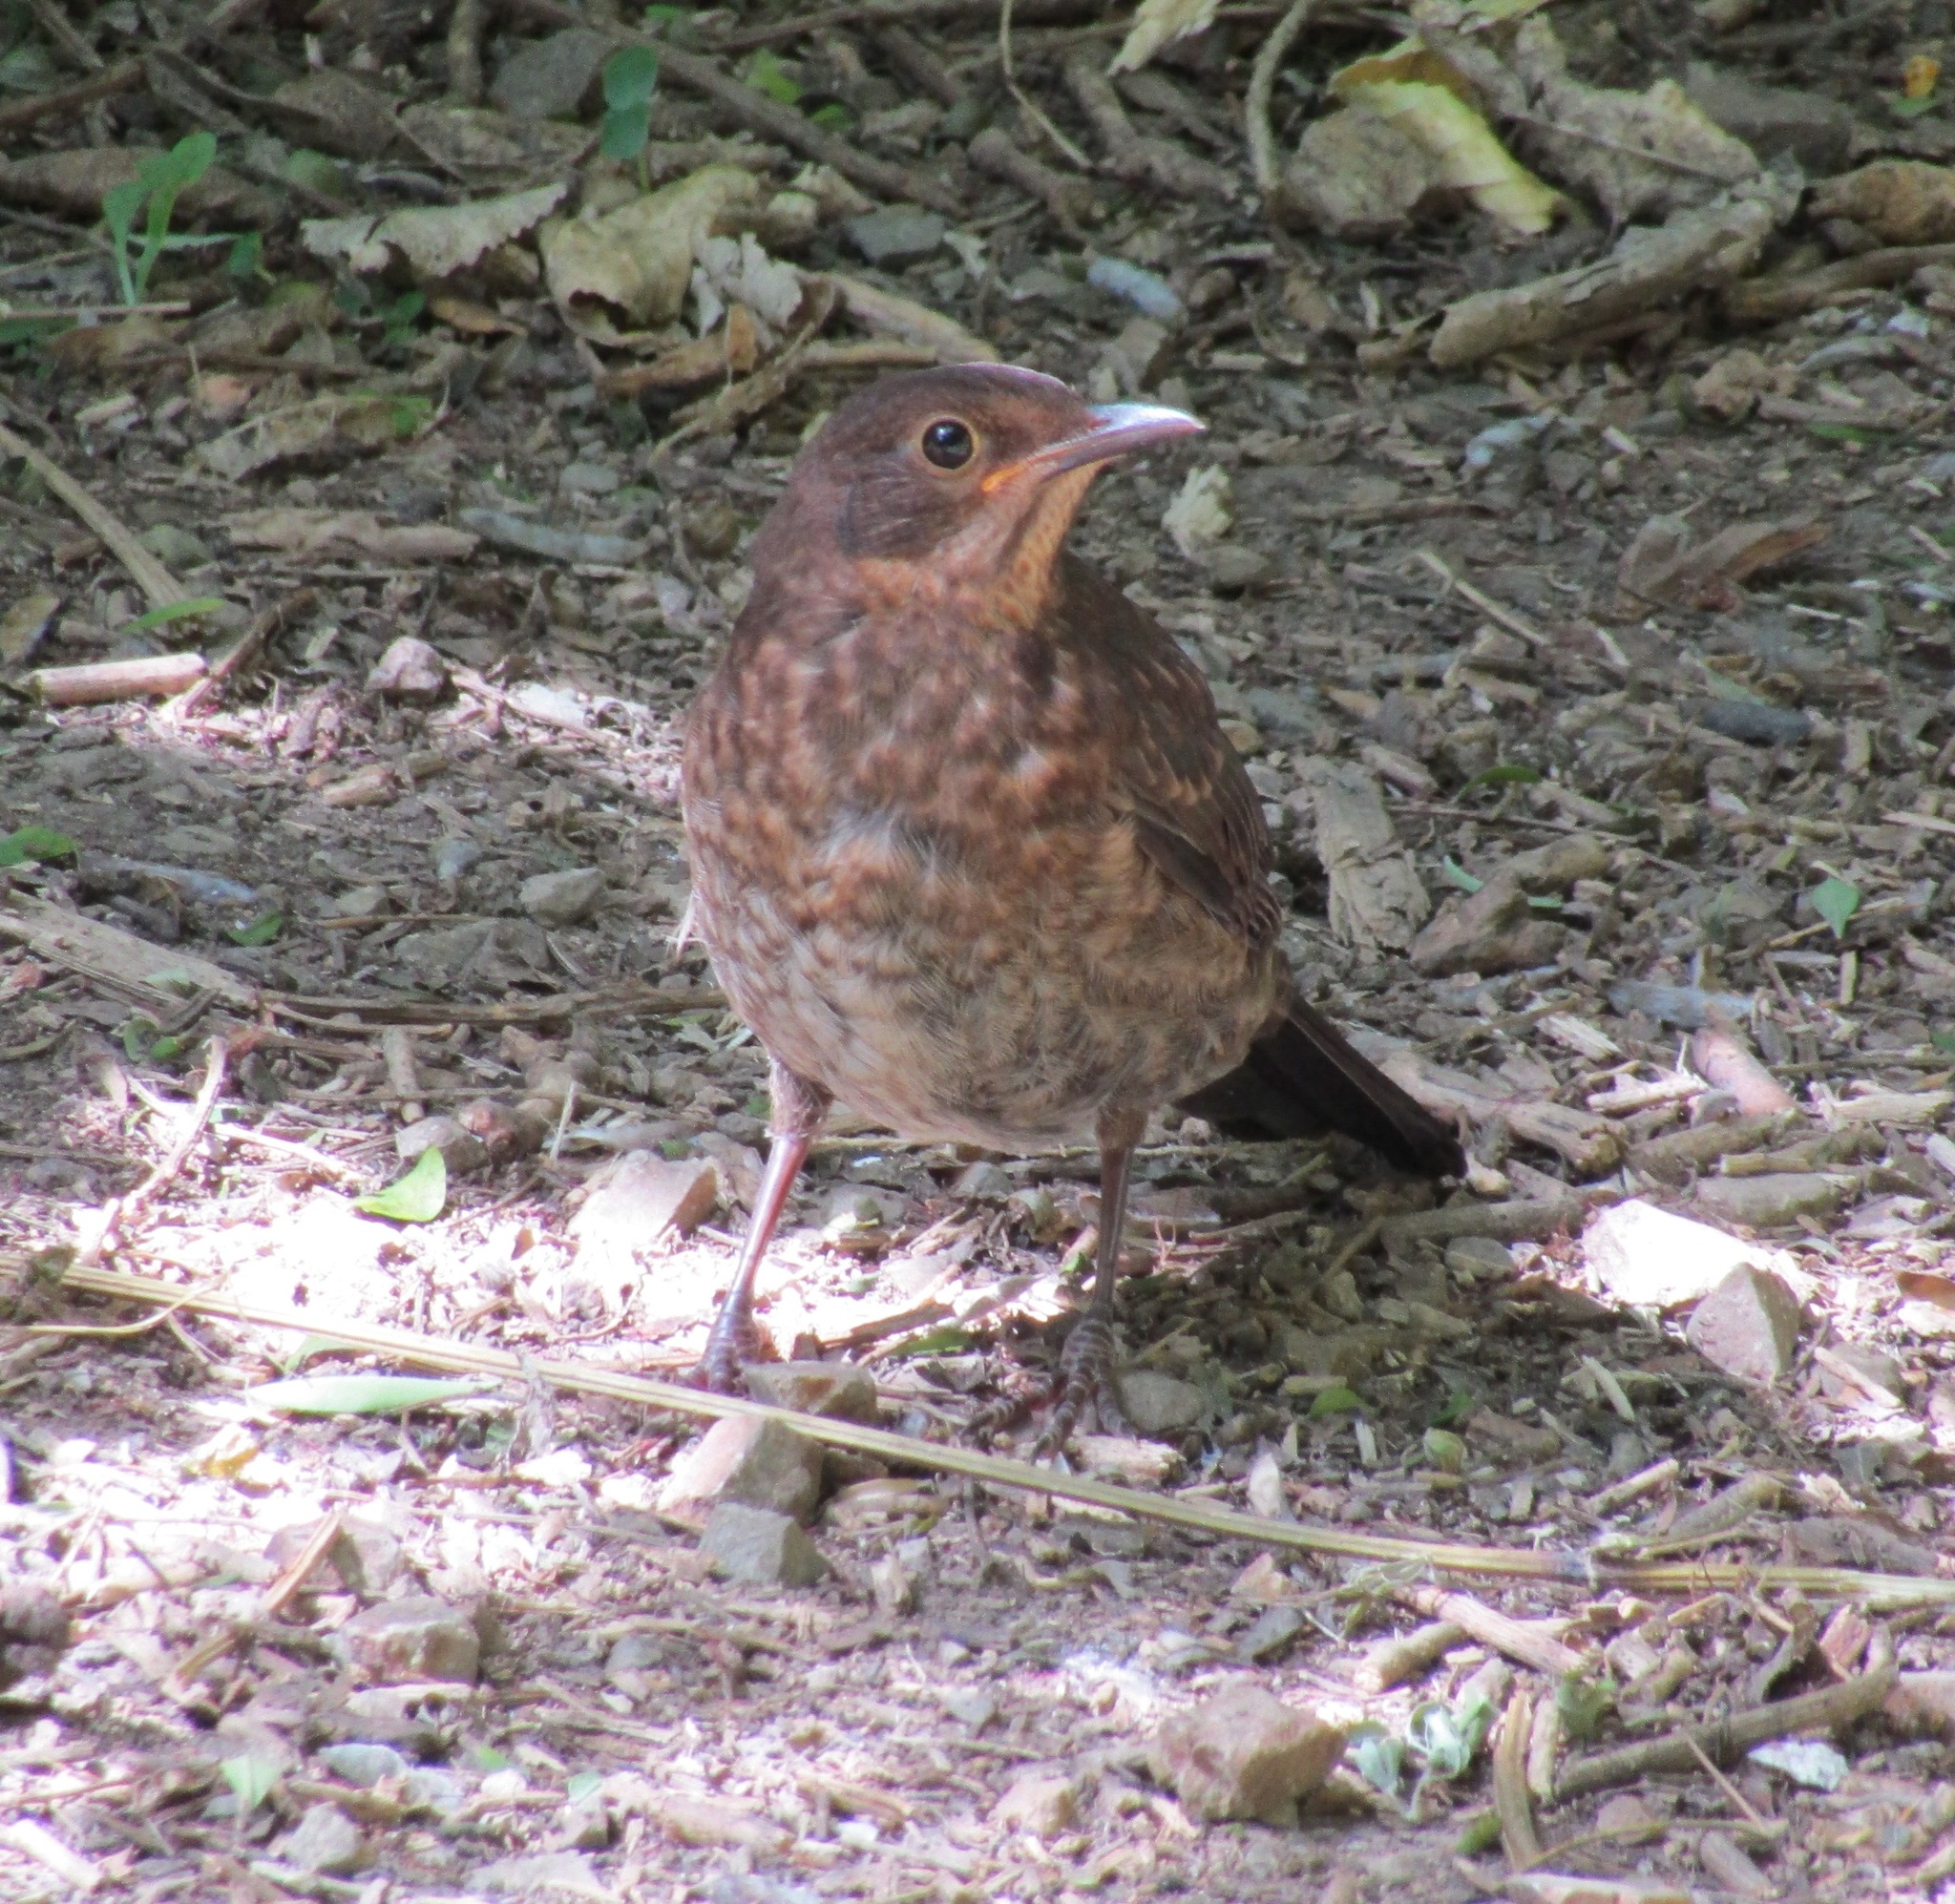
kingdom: Animalia
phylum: Chordata
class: Aves
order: Passeriformes
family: Turdidae
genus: Turdus
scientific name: Turdus merula
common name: Common blackbird
